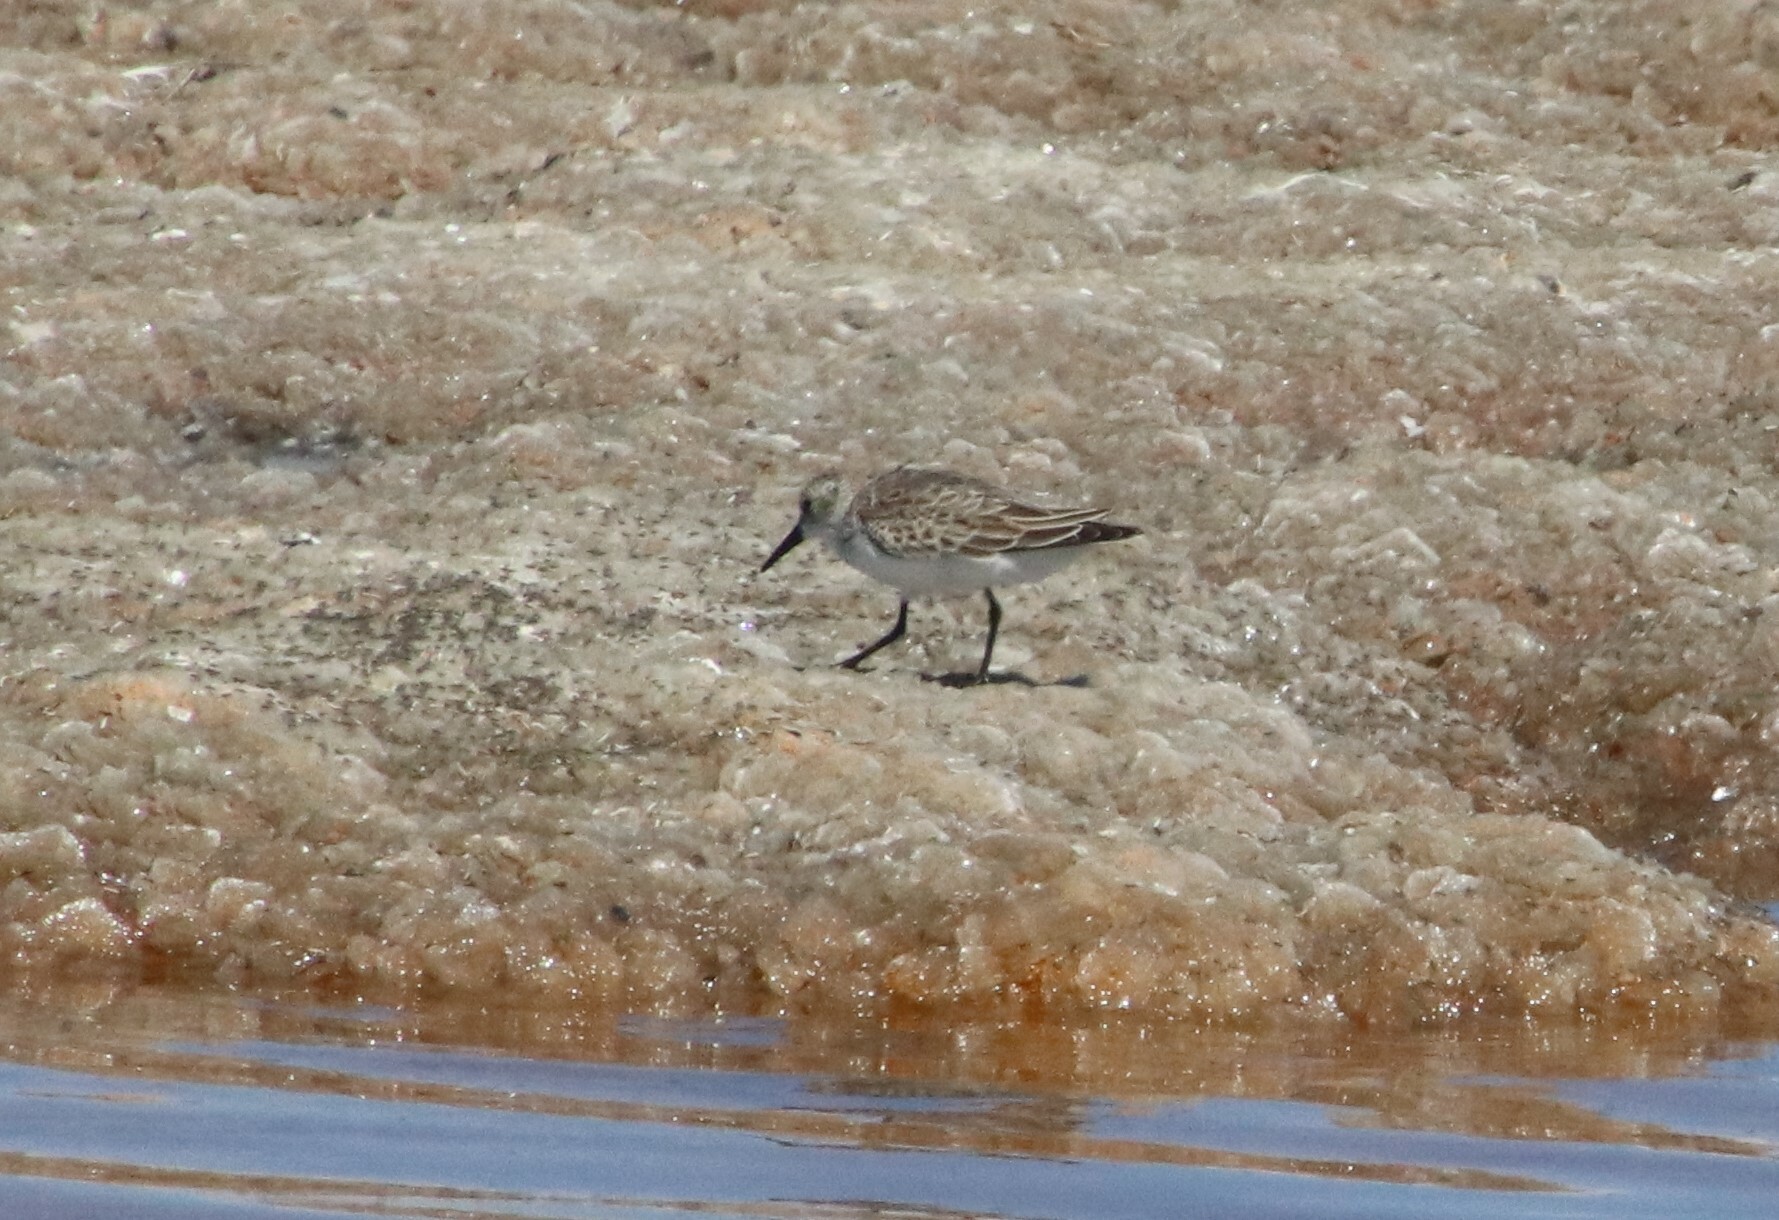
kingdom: Animalia
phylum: Chordata
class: Aves
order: Charadriiformes
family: Scolopacidae
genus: Calidris
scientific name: Calidris mauri
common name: Western sandpiper
